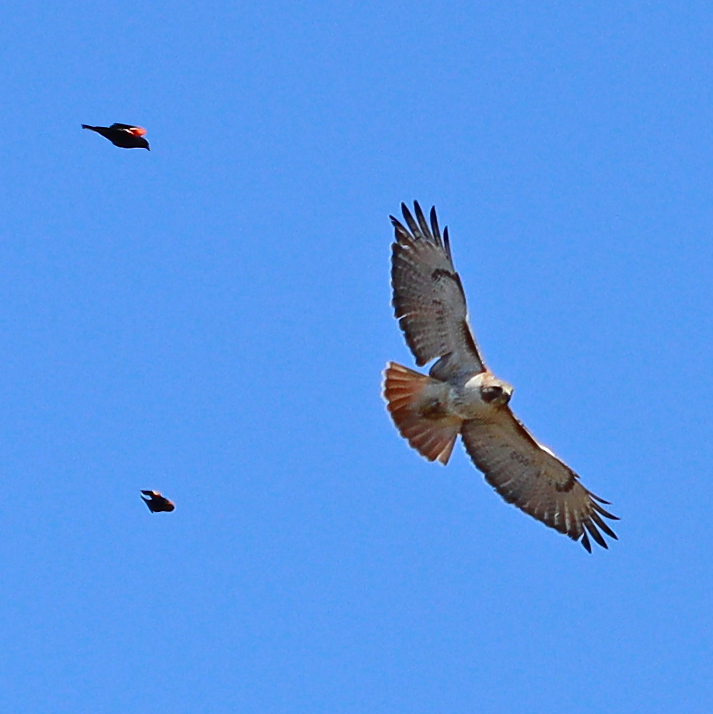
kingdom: Animalia
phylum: Chordata
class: Aves
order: Accipitriformes
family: Accipitridae
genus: Buteo
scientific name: Buteo jamaicensis
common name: Red-tailed hawk
